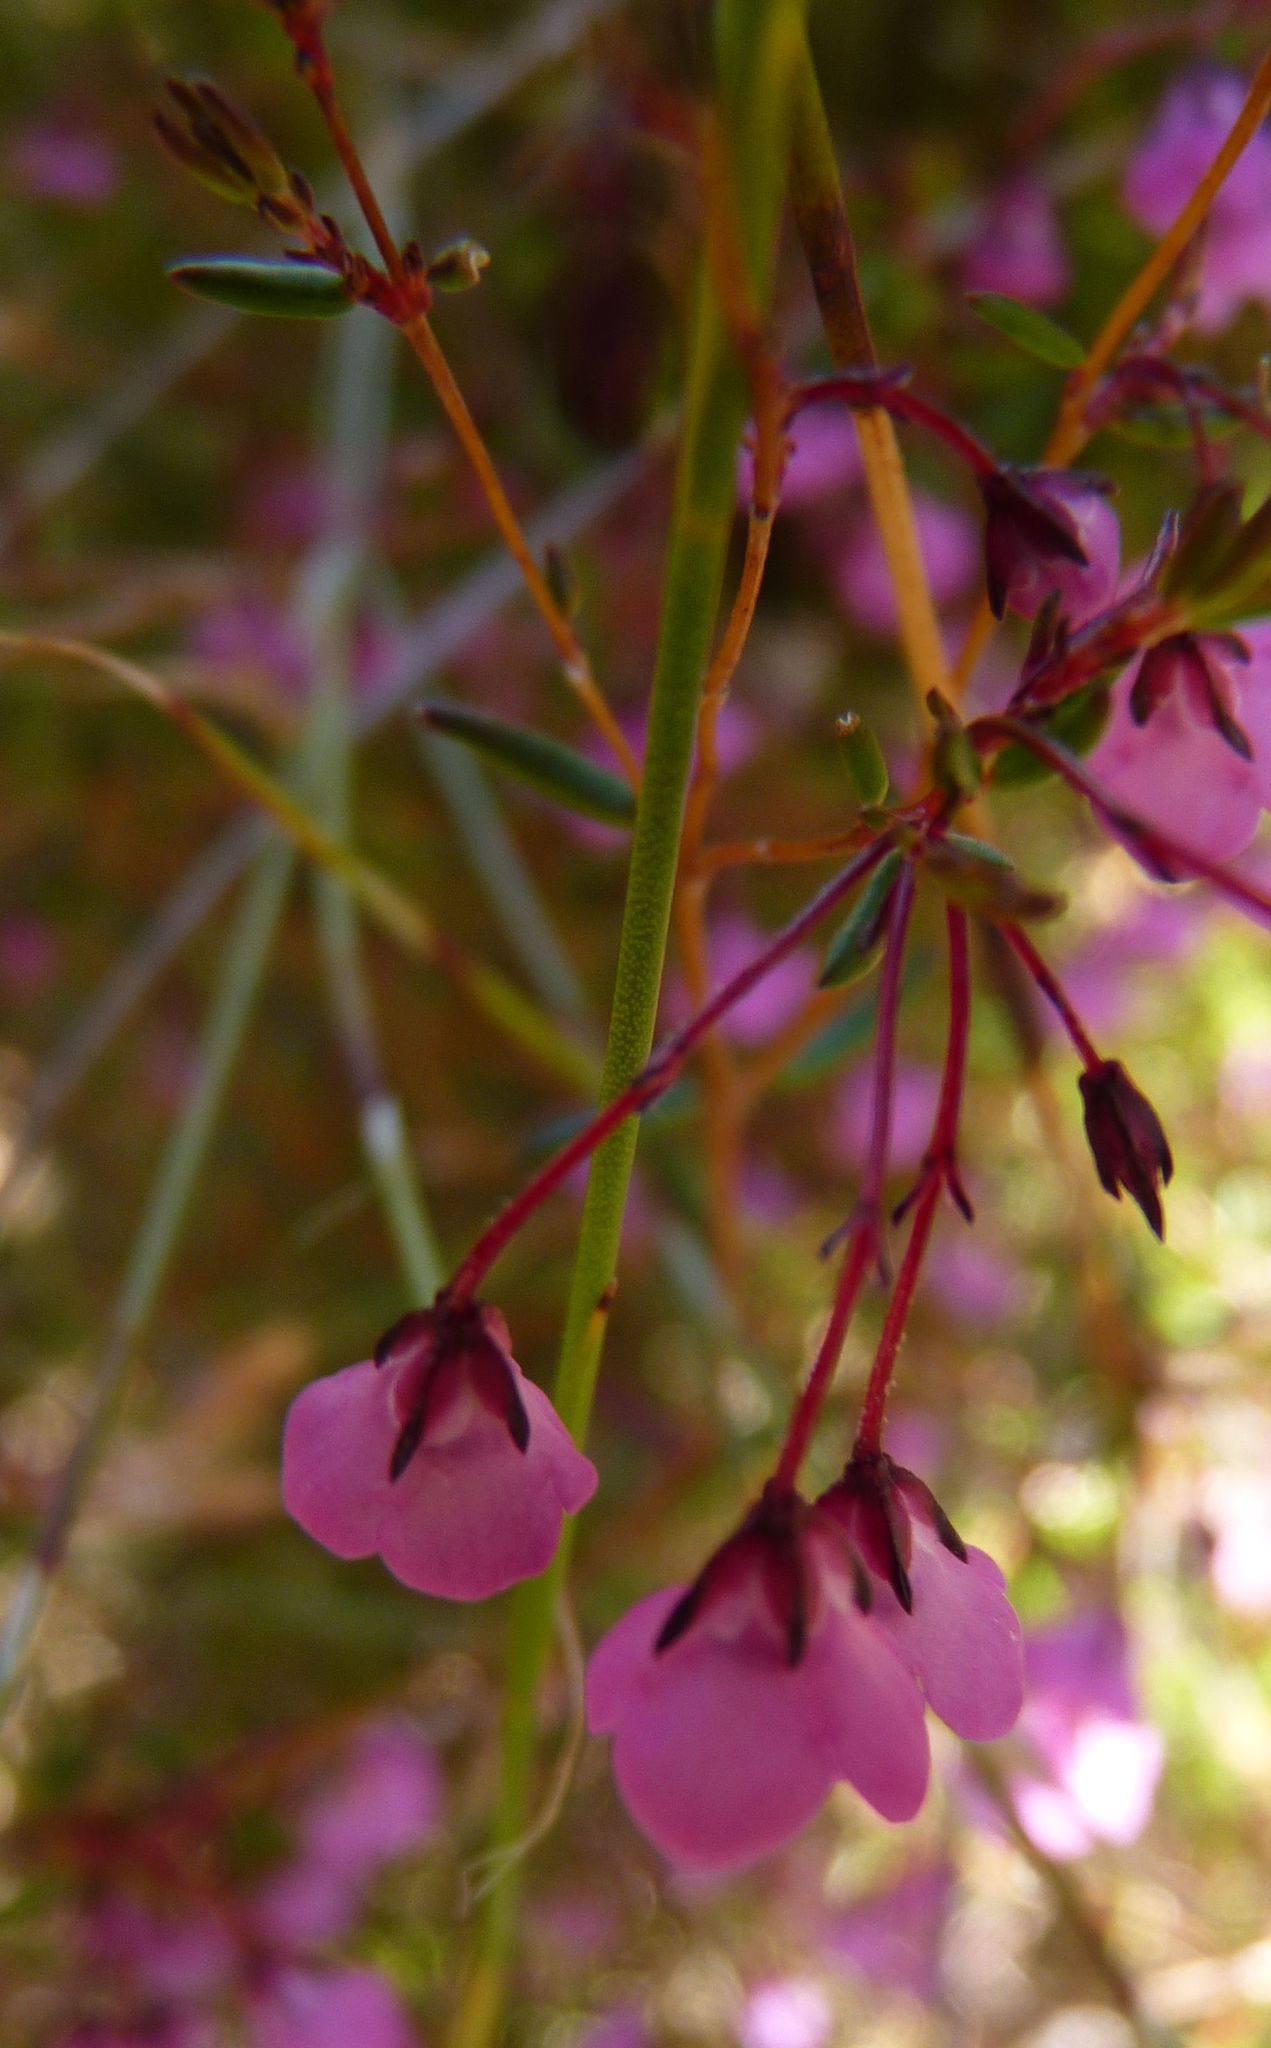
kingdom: Plantae
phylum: Tracheophyta
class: Magnoliopsida
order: Ericales
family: Ericaceae
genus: Erica
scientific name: Erica tetrathecoides
